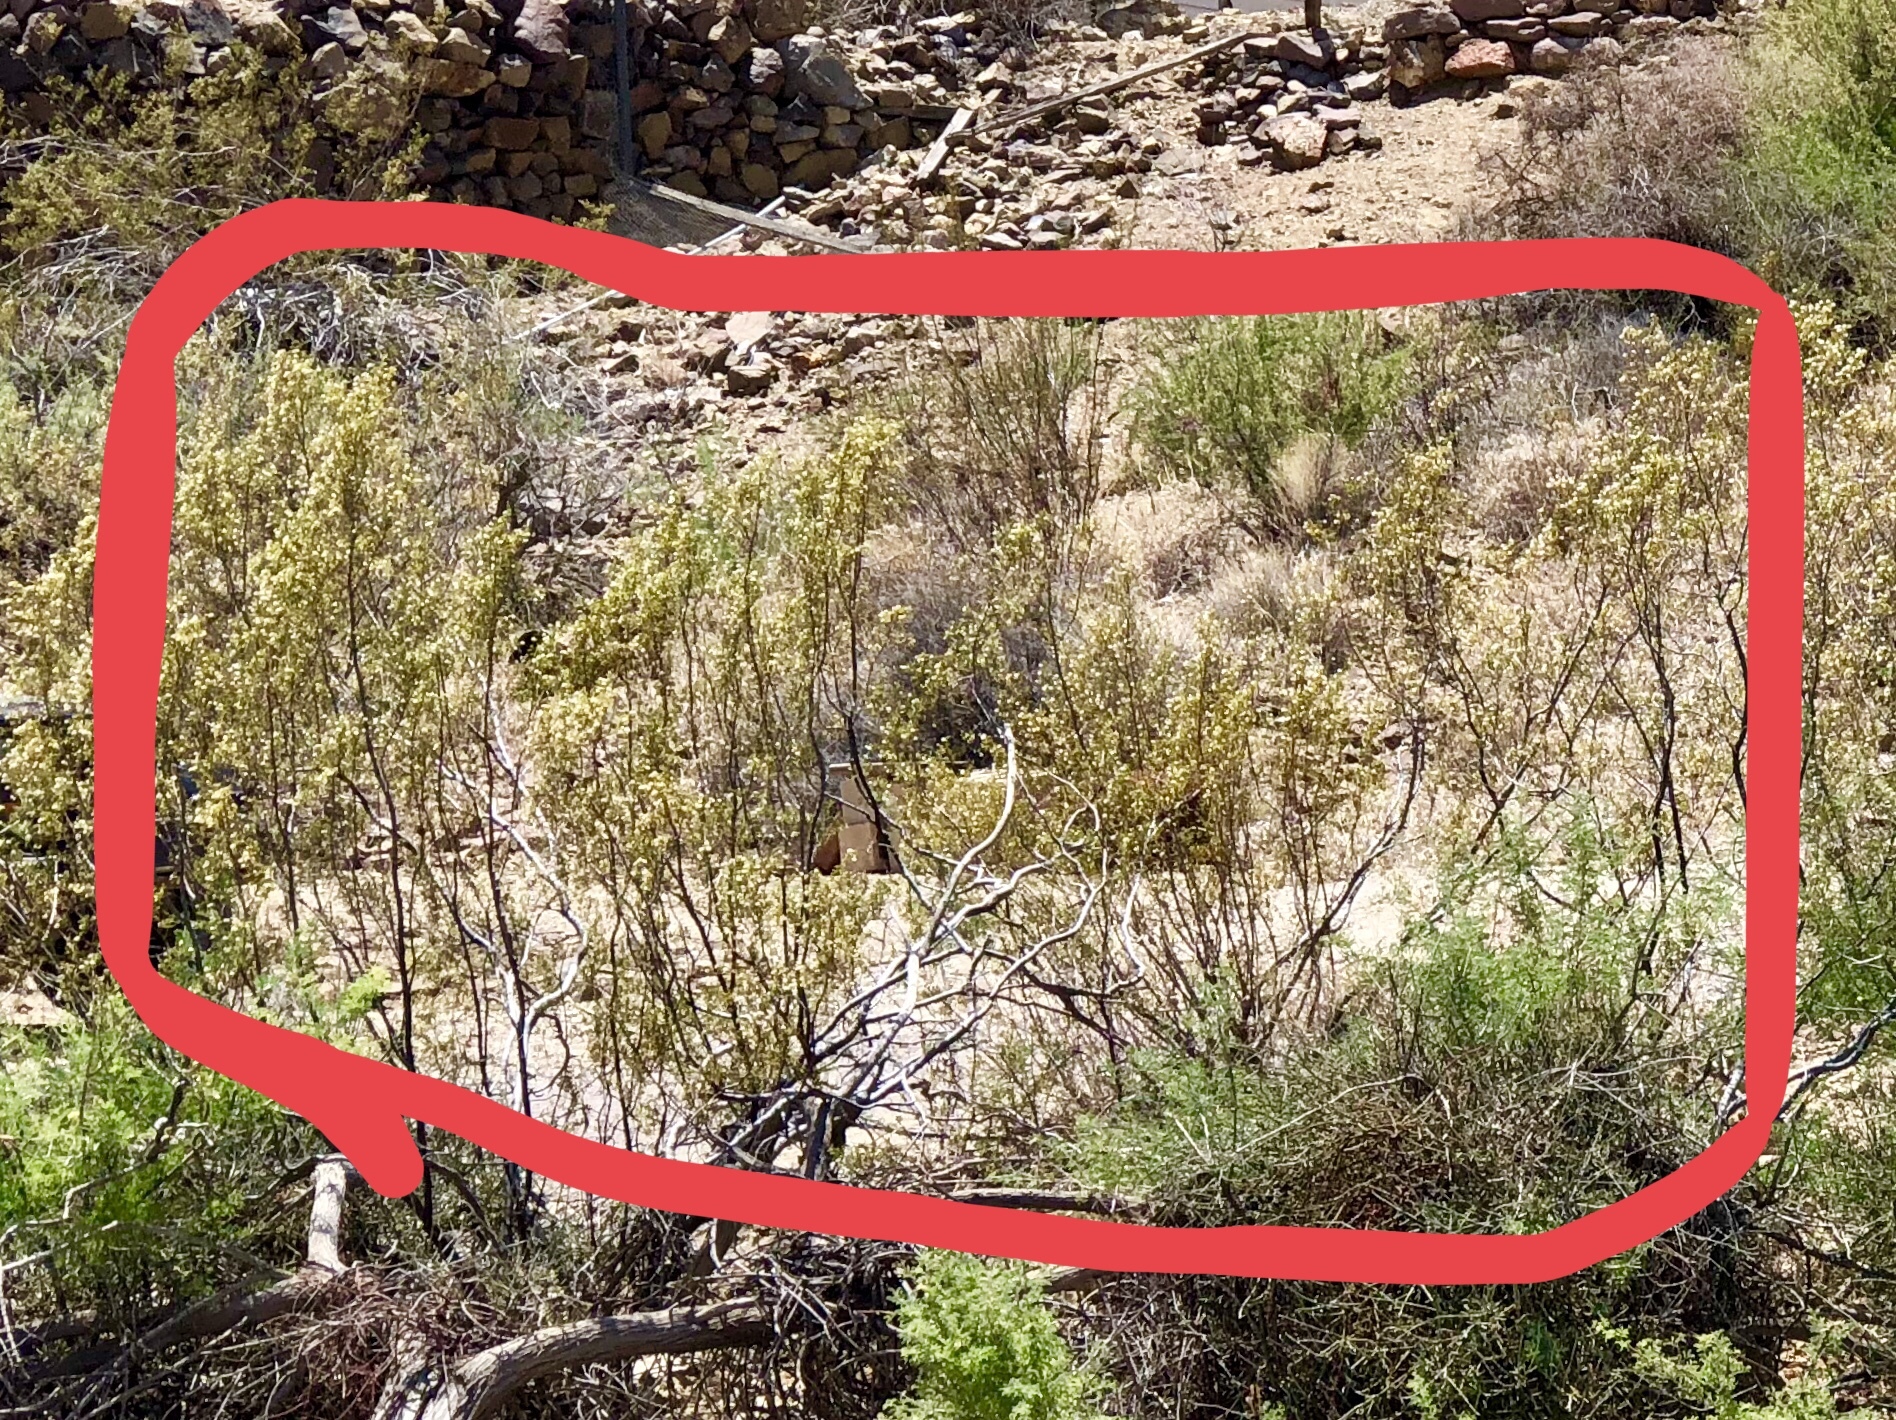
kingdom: Plantae
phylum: Tracheophyta
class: Magnoliopsida
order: Zygophyllales
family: Zygophyllaceae
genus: Larrea
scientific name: Larrea tridentata
